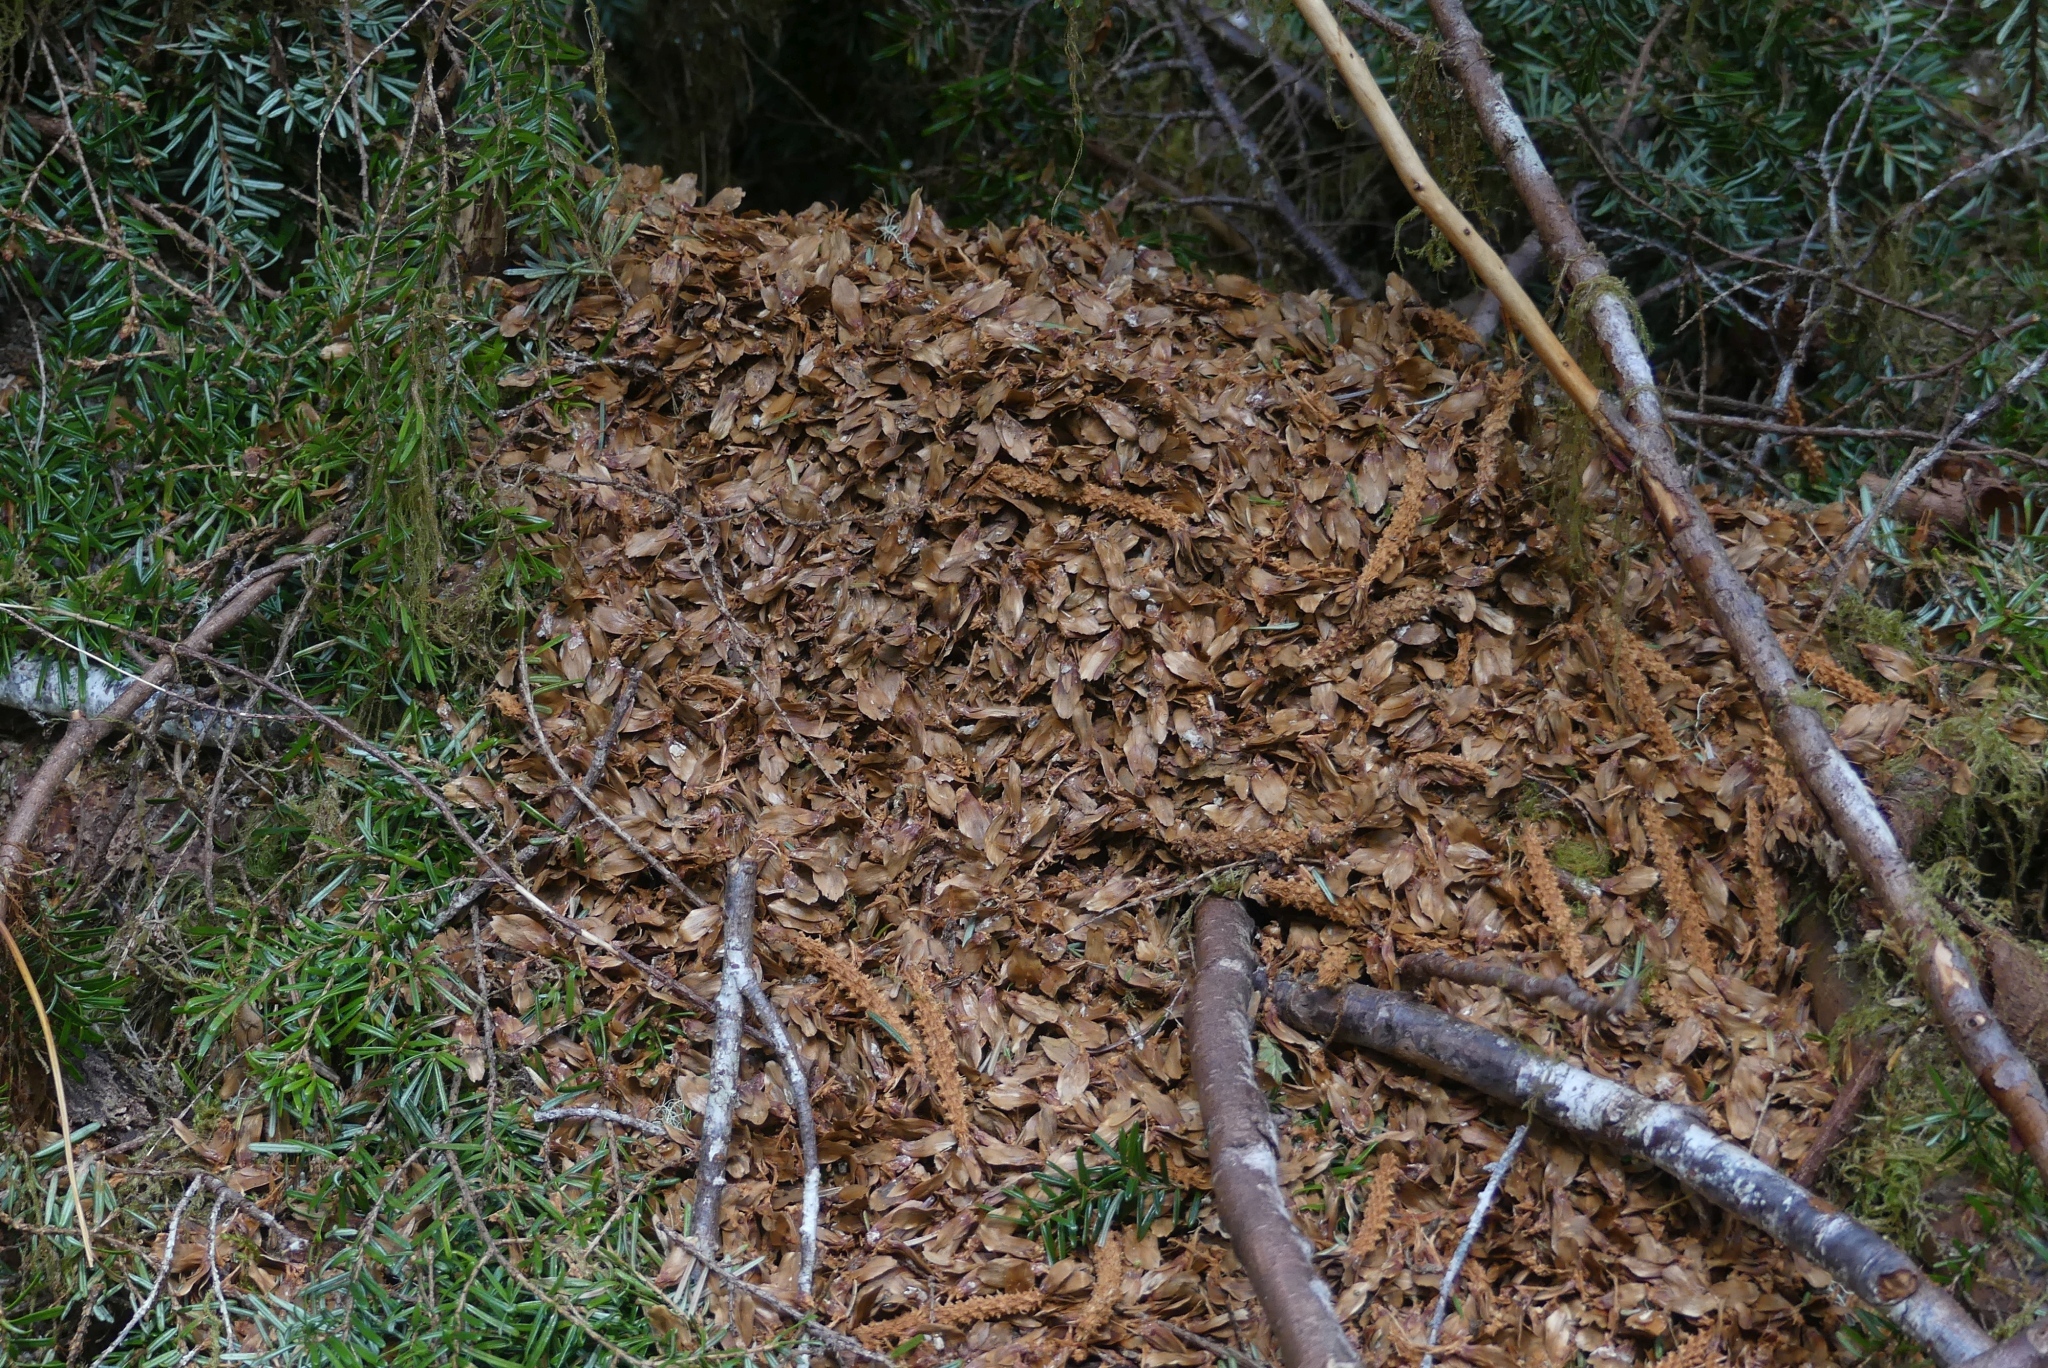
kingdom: Animalia
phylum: Chordata
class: Mammalia
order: Rodentia
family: Sciuridae
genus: Tamiasciurus
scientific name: Tamiasciurus hudsonicus
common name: Red squirrel
